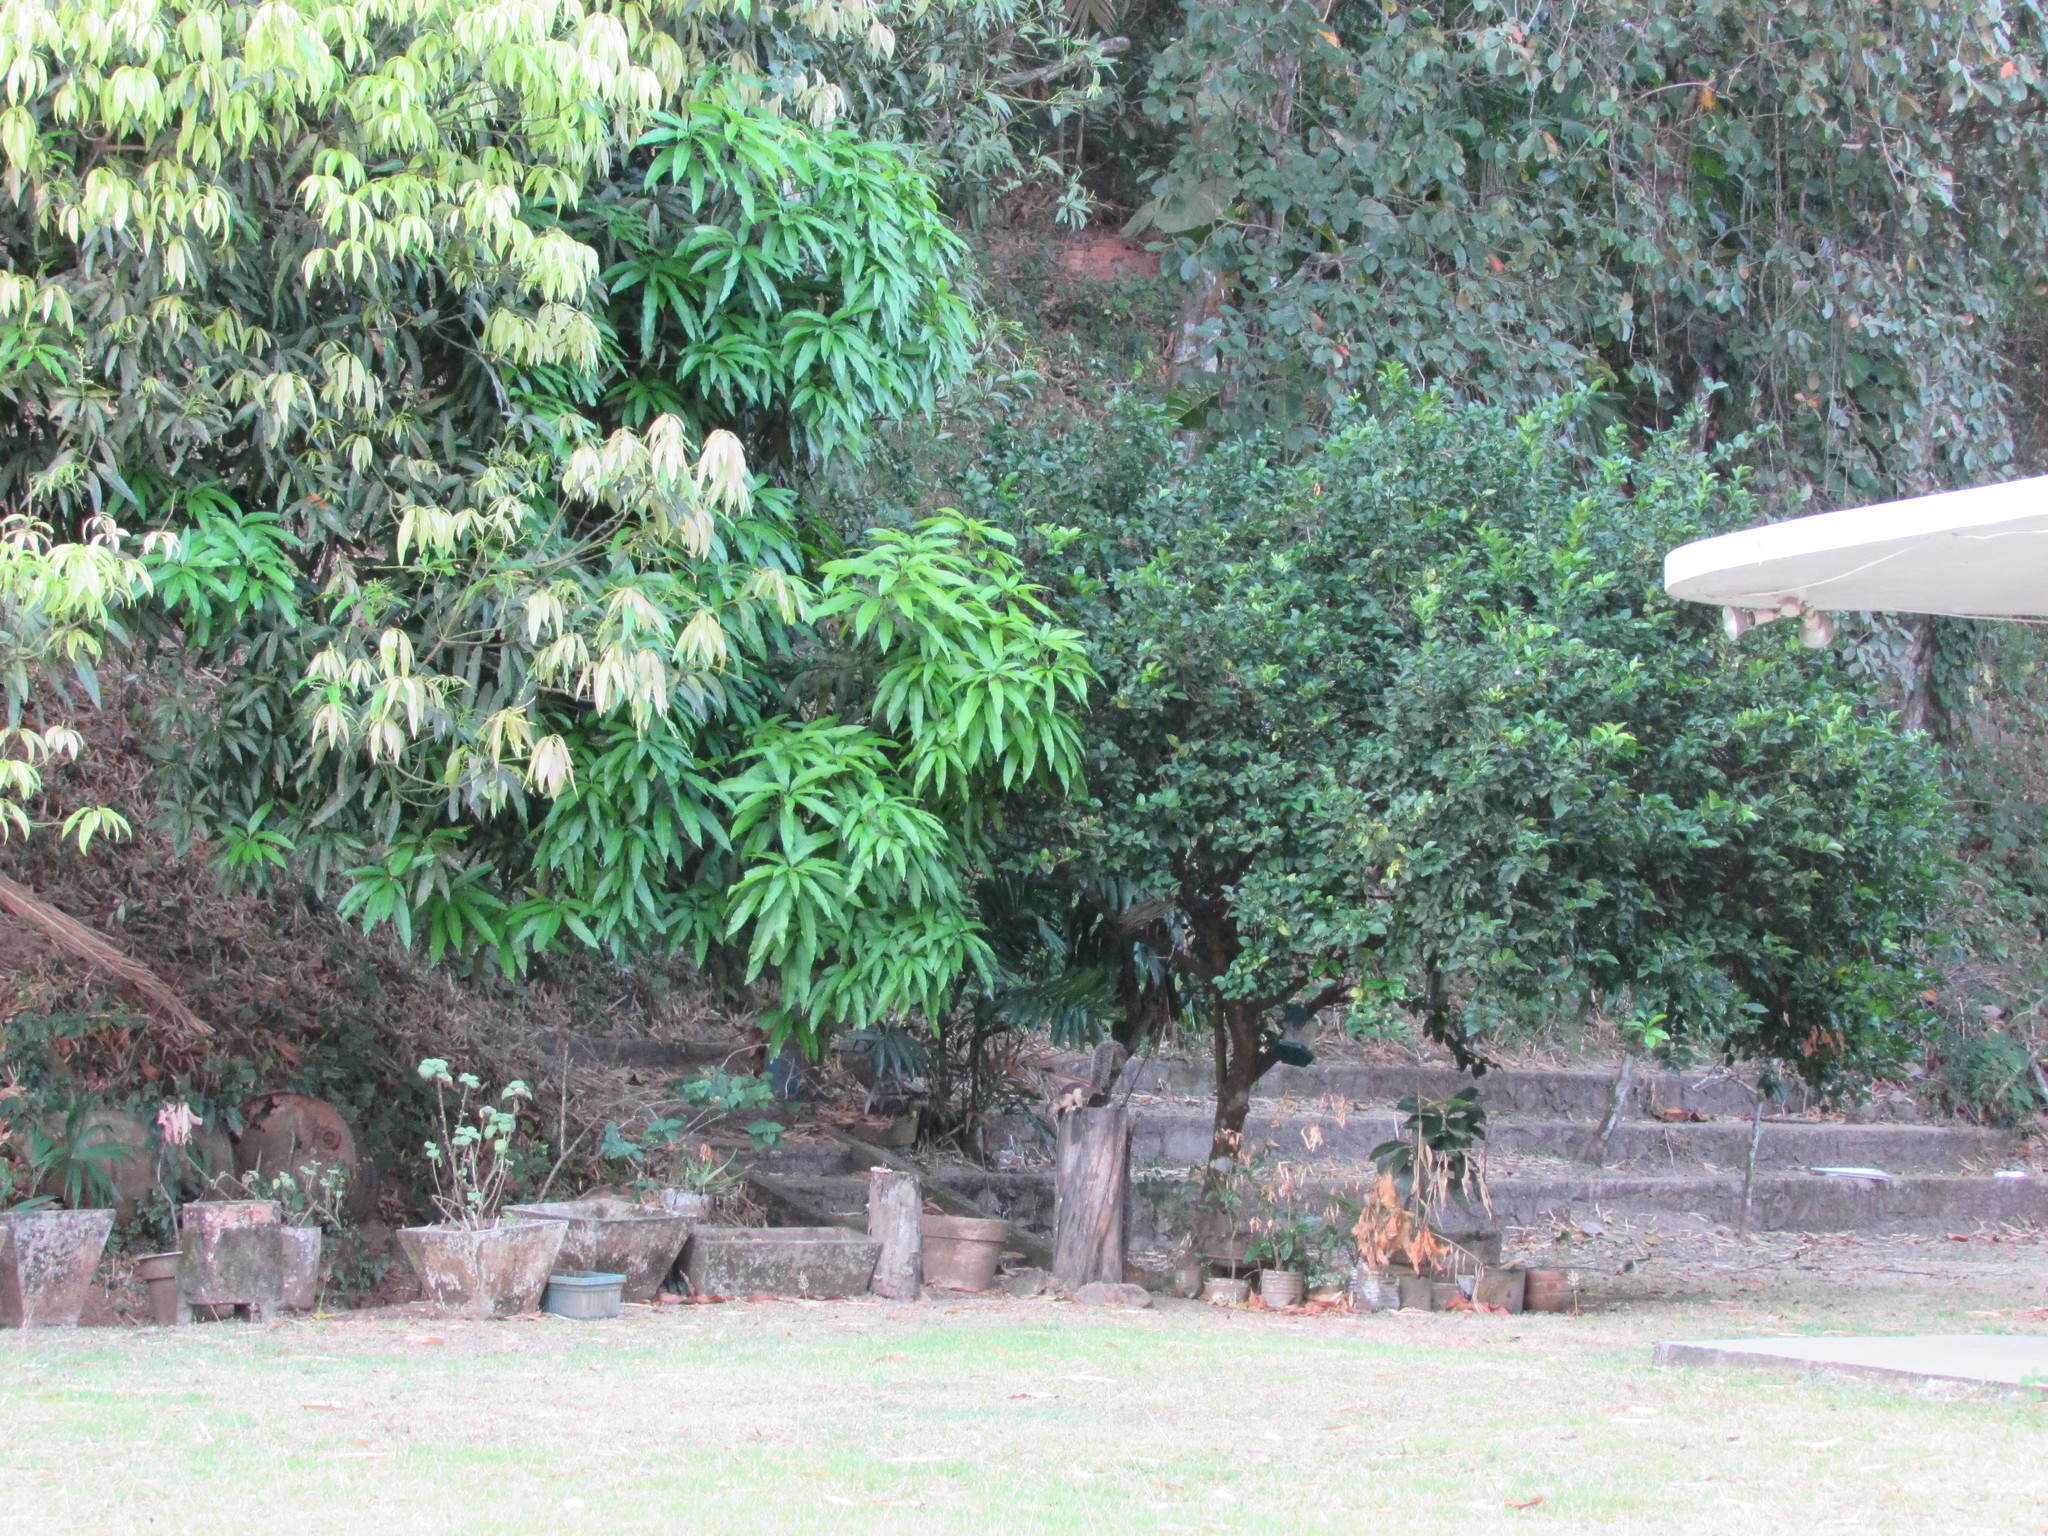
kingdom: Animalia
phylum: Chordata
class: Mammalia
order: Rodentia
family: Sciuridae
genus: Sciurus
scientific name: Sciurus variegatoides
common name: Variegated squirrel
